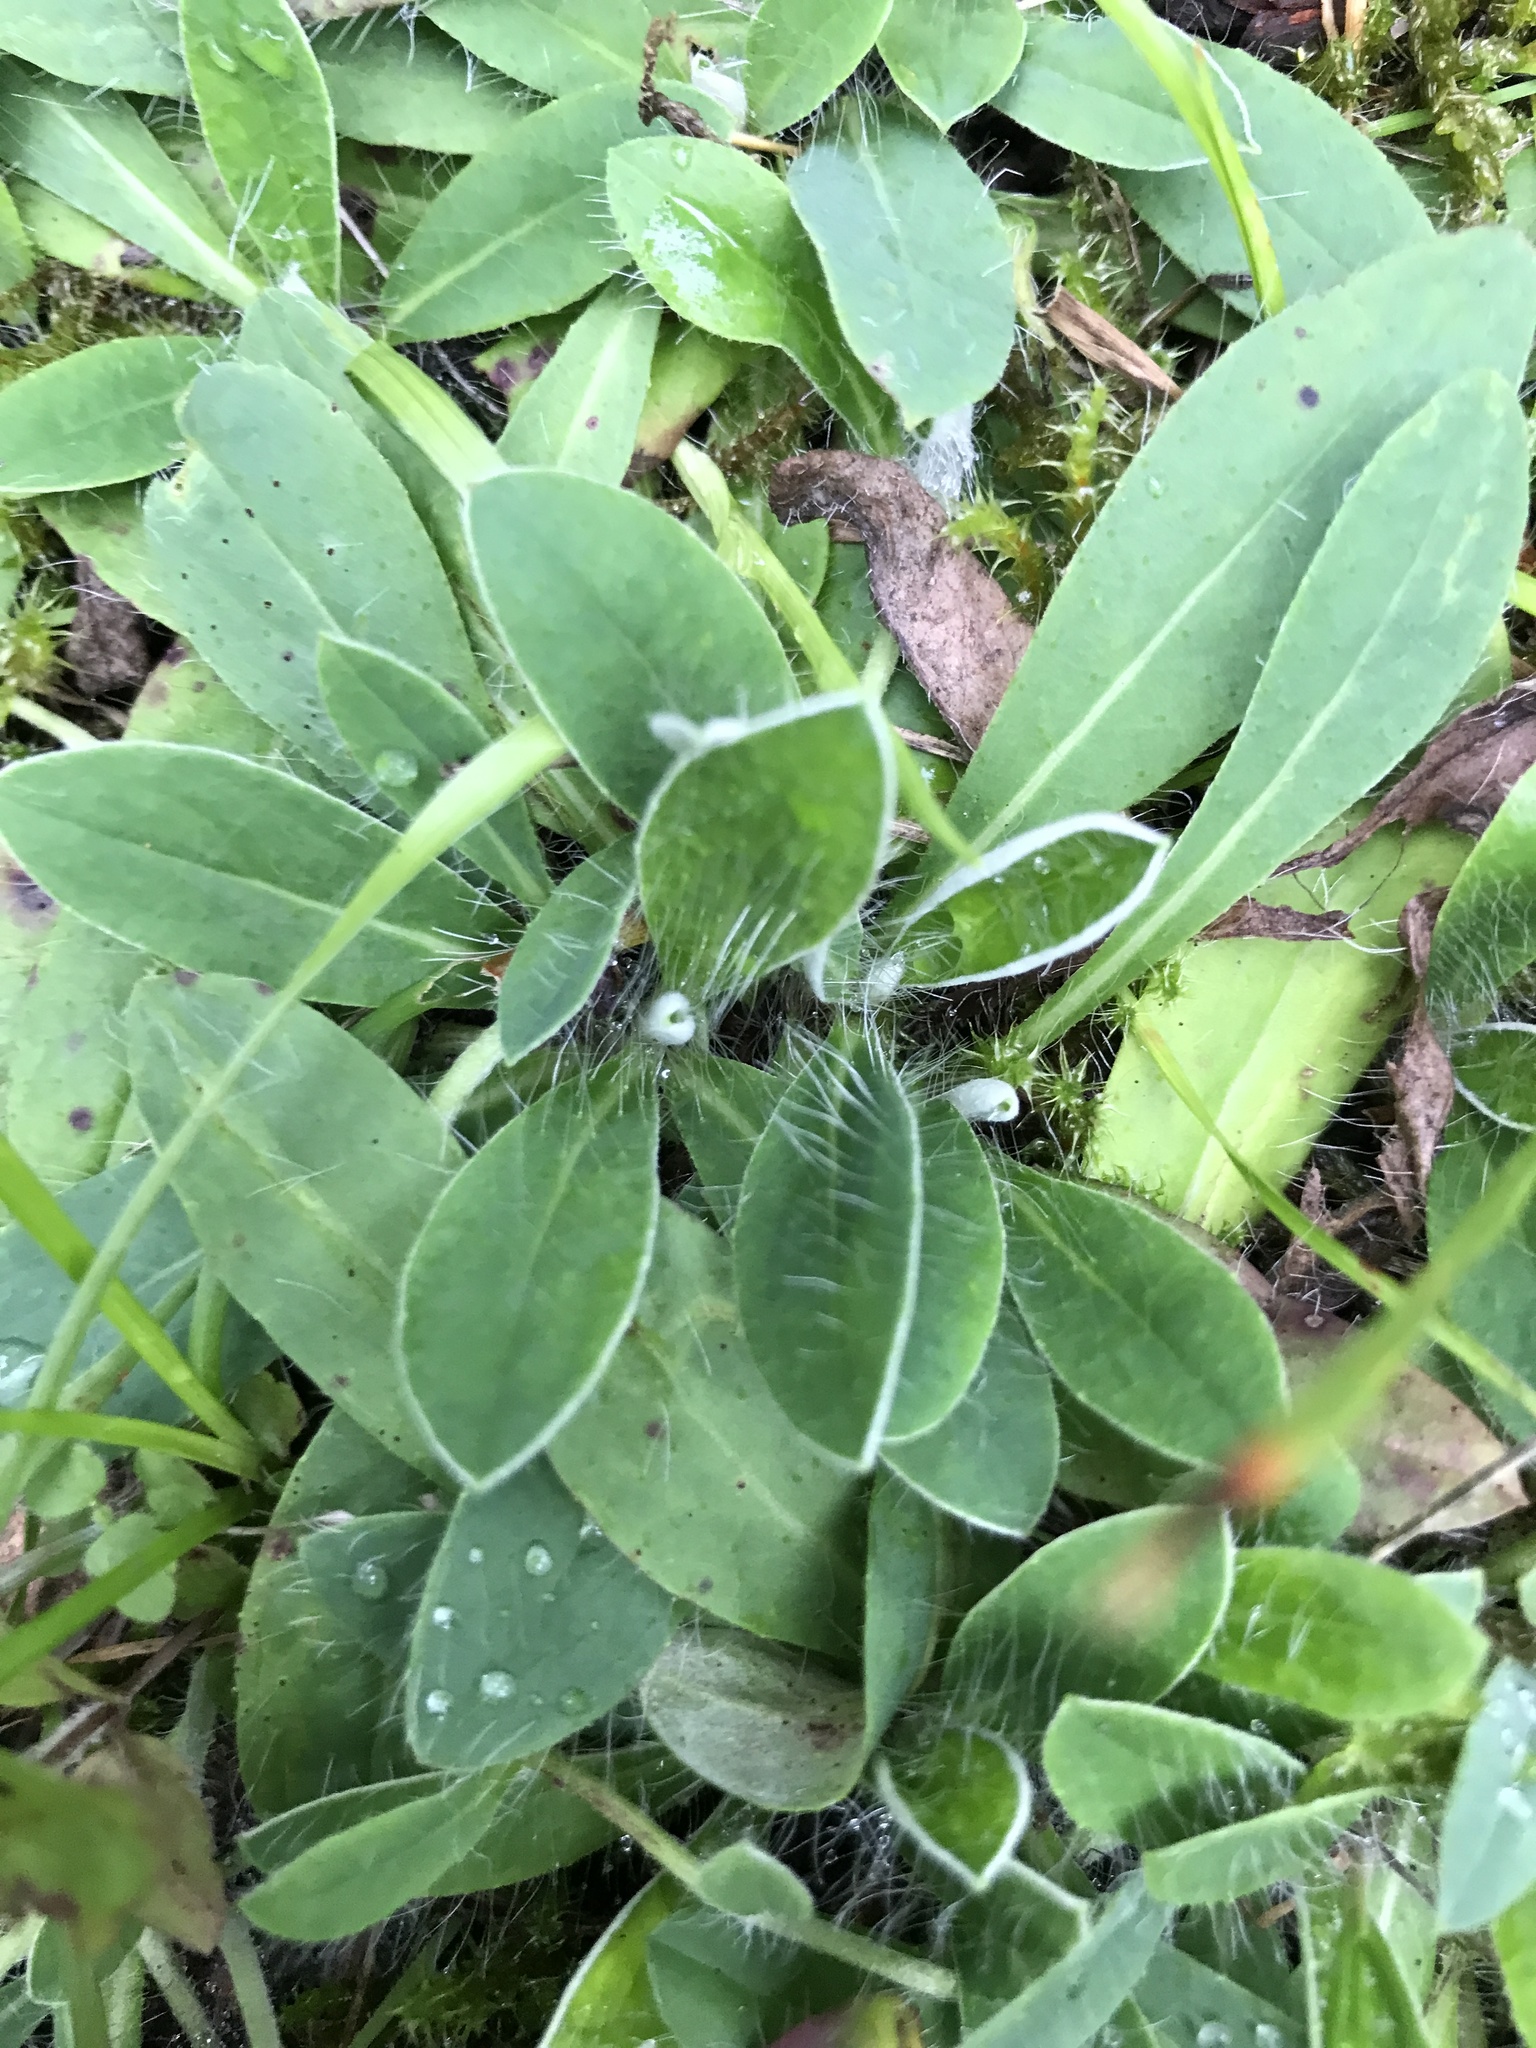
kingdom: Plantae
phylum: Tracheophyta
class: Magnoliopsida
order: Asterales
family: Asteraceae
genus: Pilosella
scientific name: Pilosella officinarum
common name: Mouse-ear hawkweed
